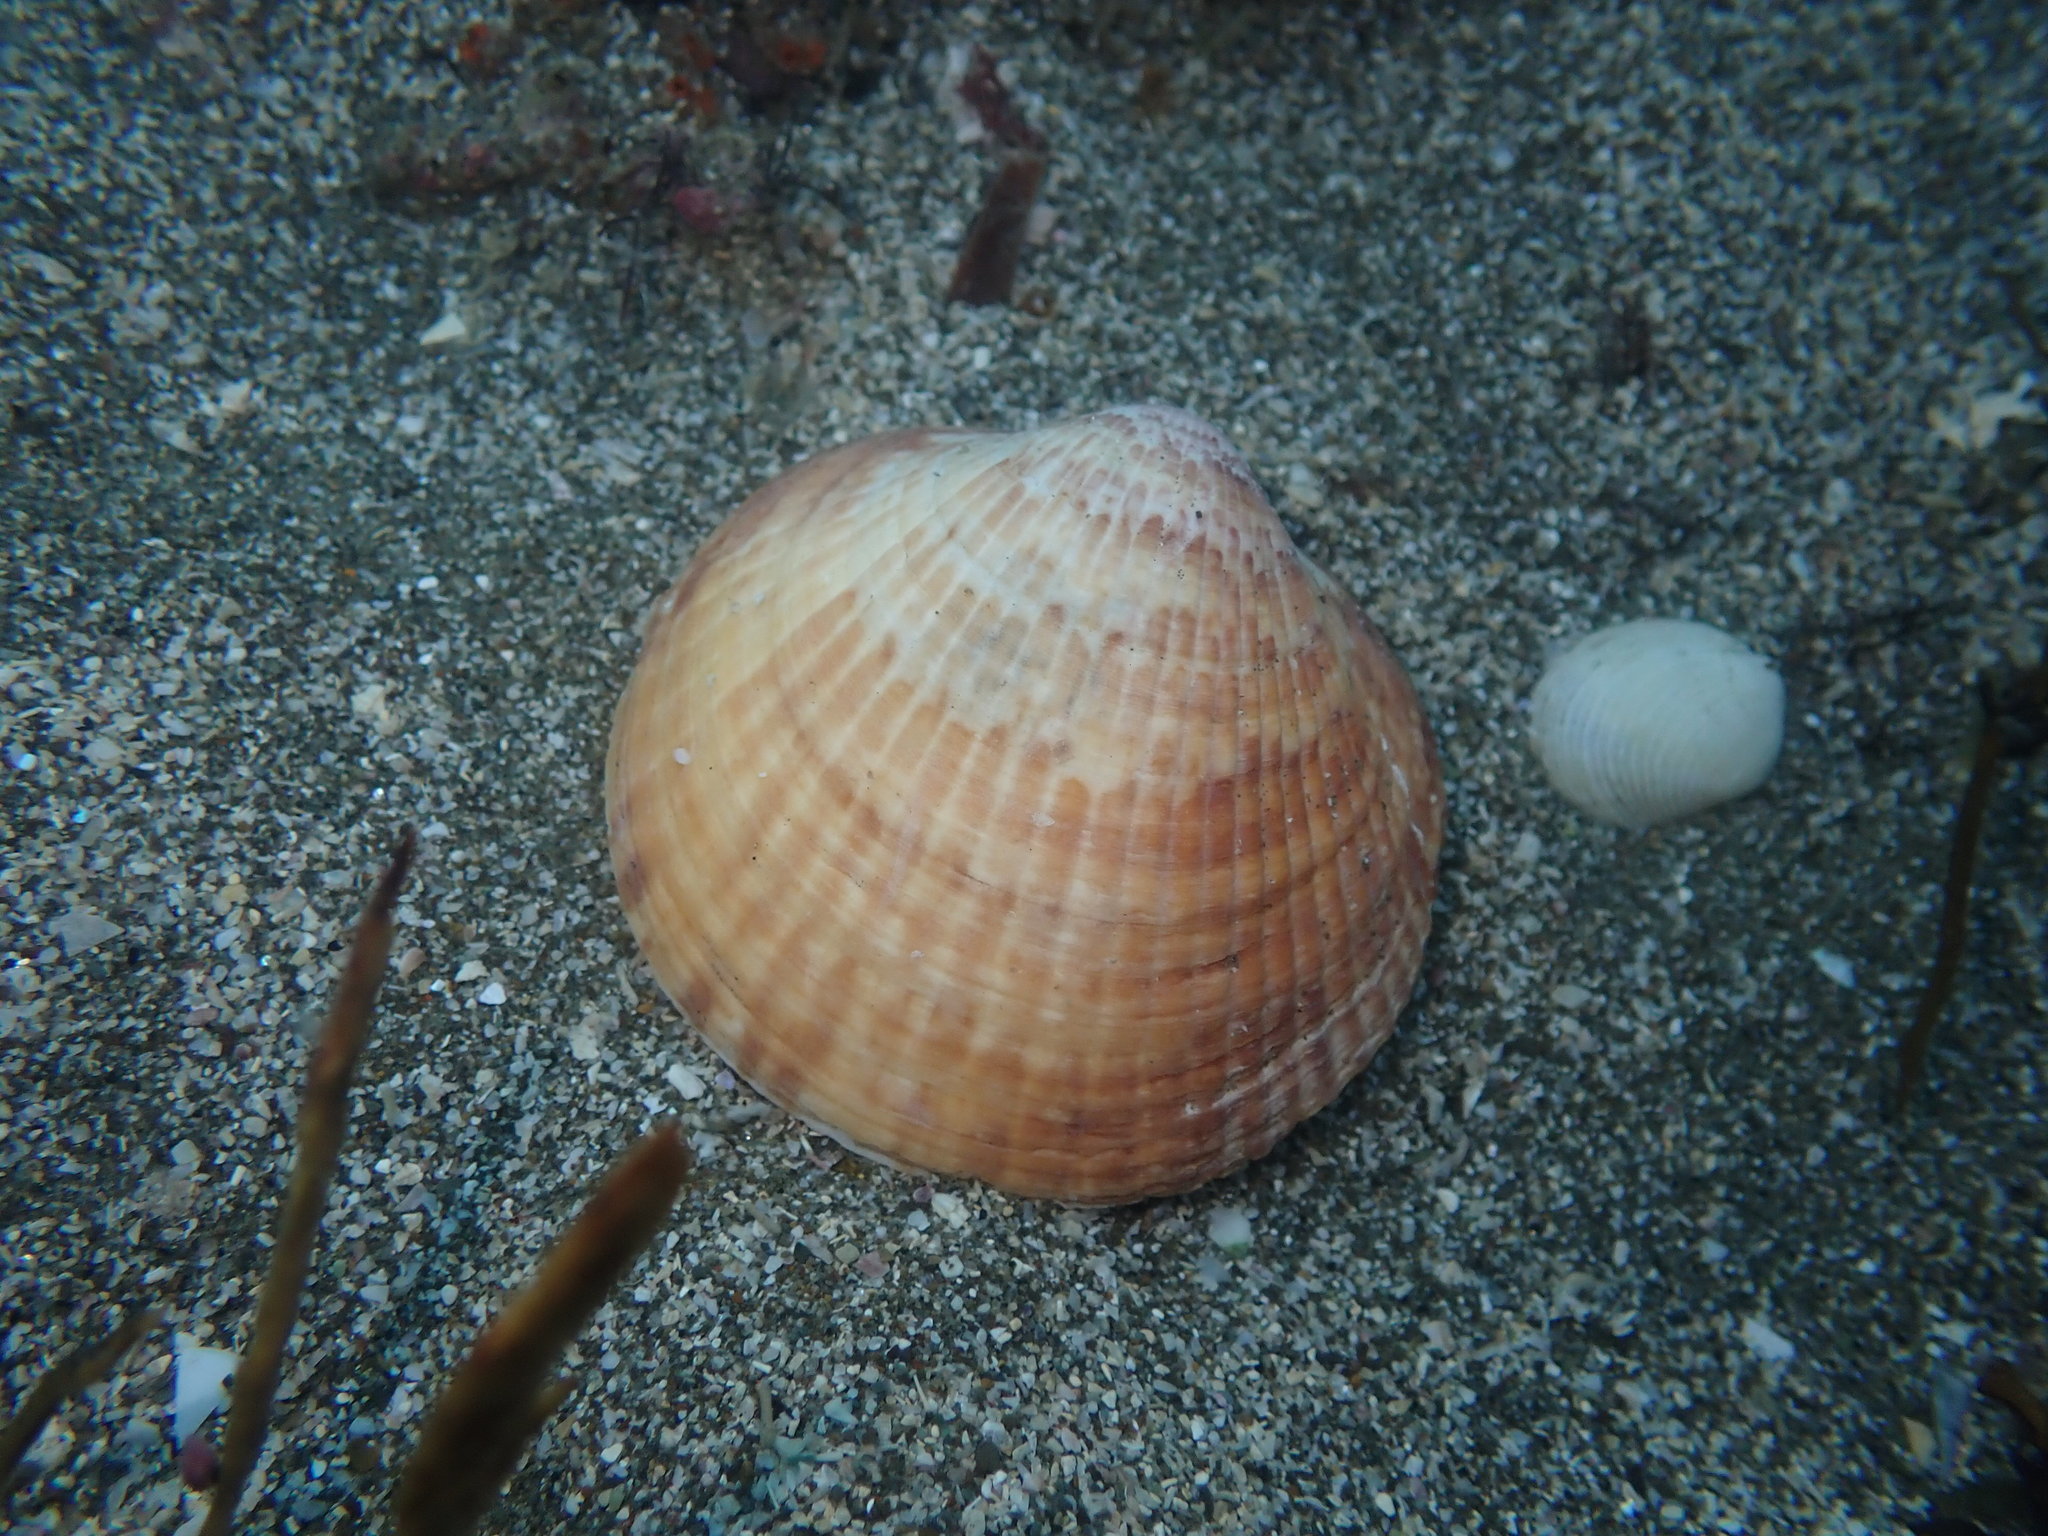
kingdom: Animalia
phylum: Mollusca
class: Bivalvia
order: Arcida
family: Glycymerididae
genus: Tucetona
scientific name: Tucetona laticostata
